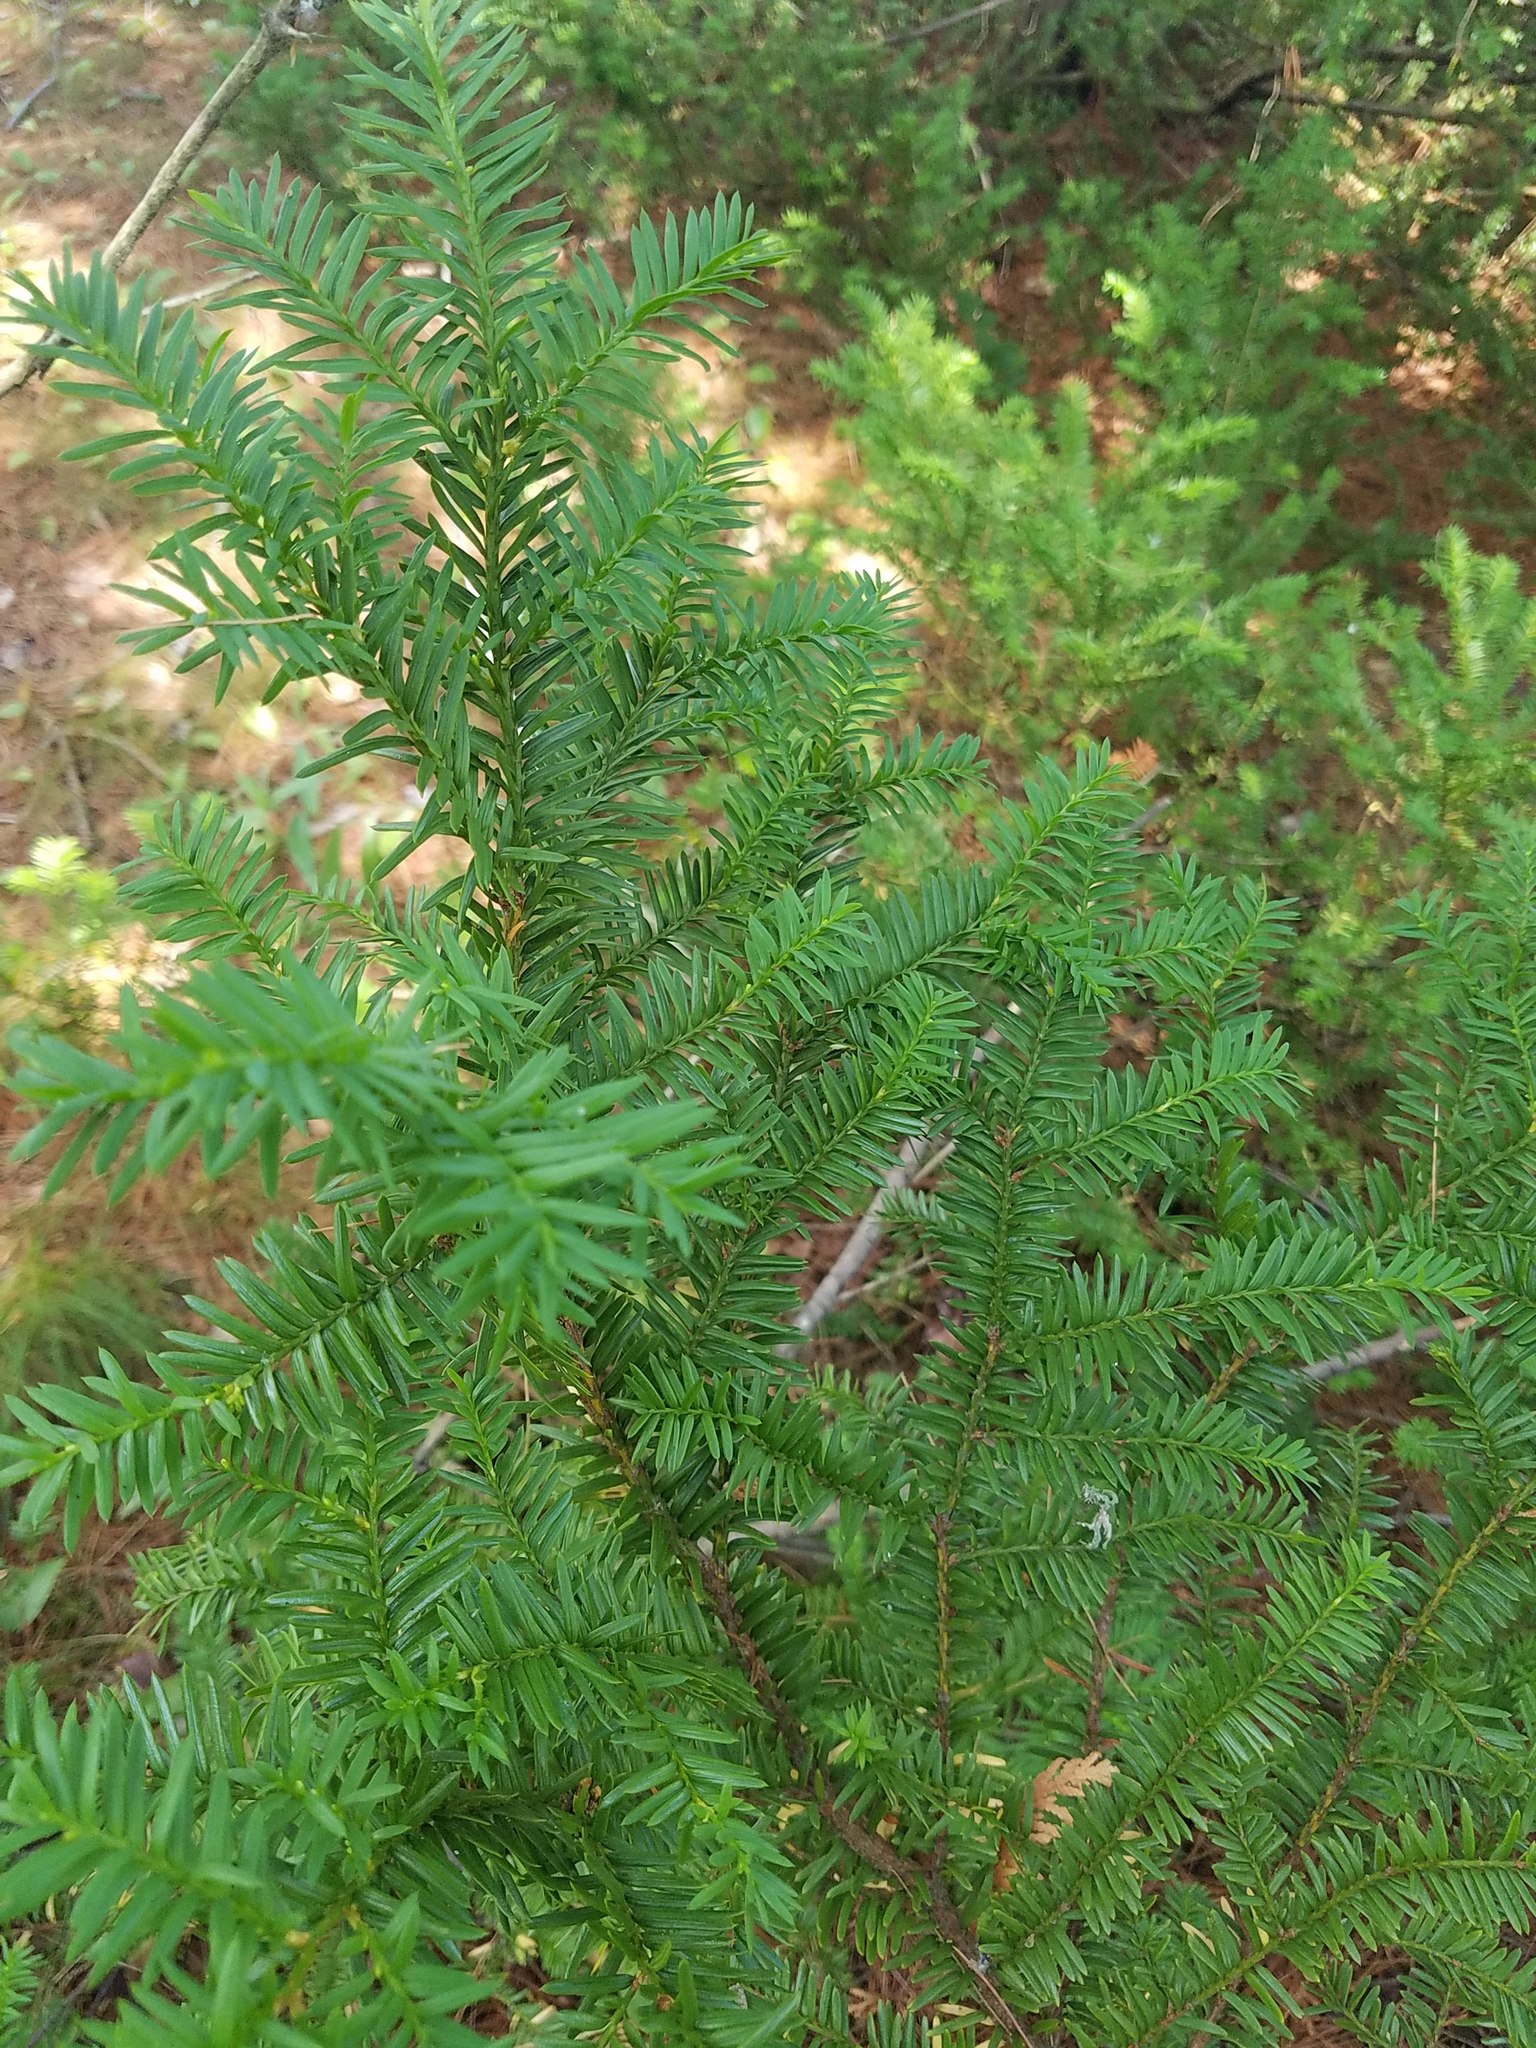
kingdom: Plantae
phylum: Tracheophyta
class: Pinopsida
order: Pinales
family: Taxaceae
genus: Taxus
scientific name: Taxus canadensis
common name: American yew
